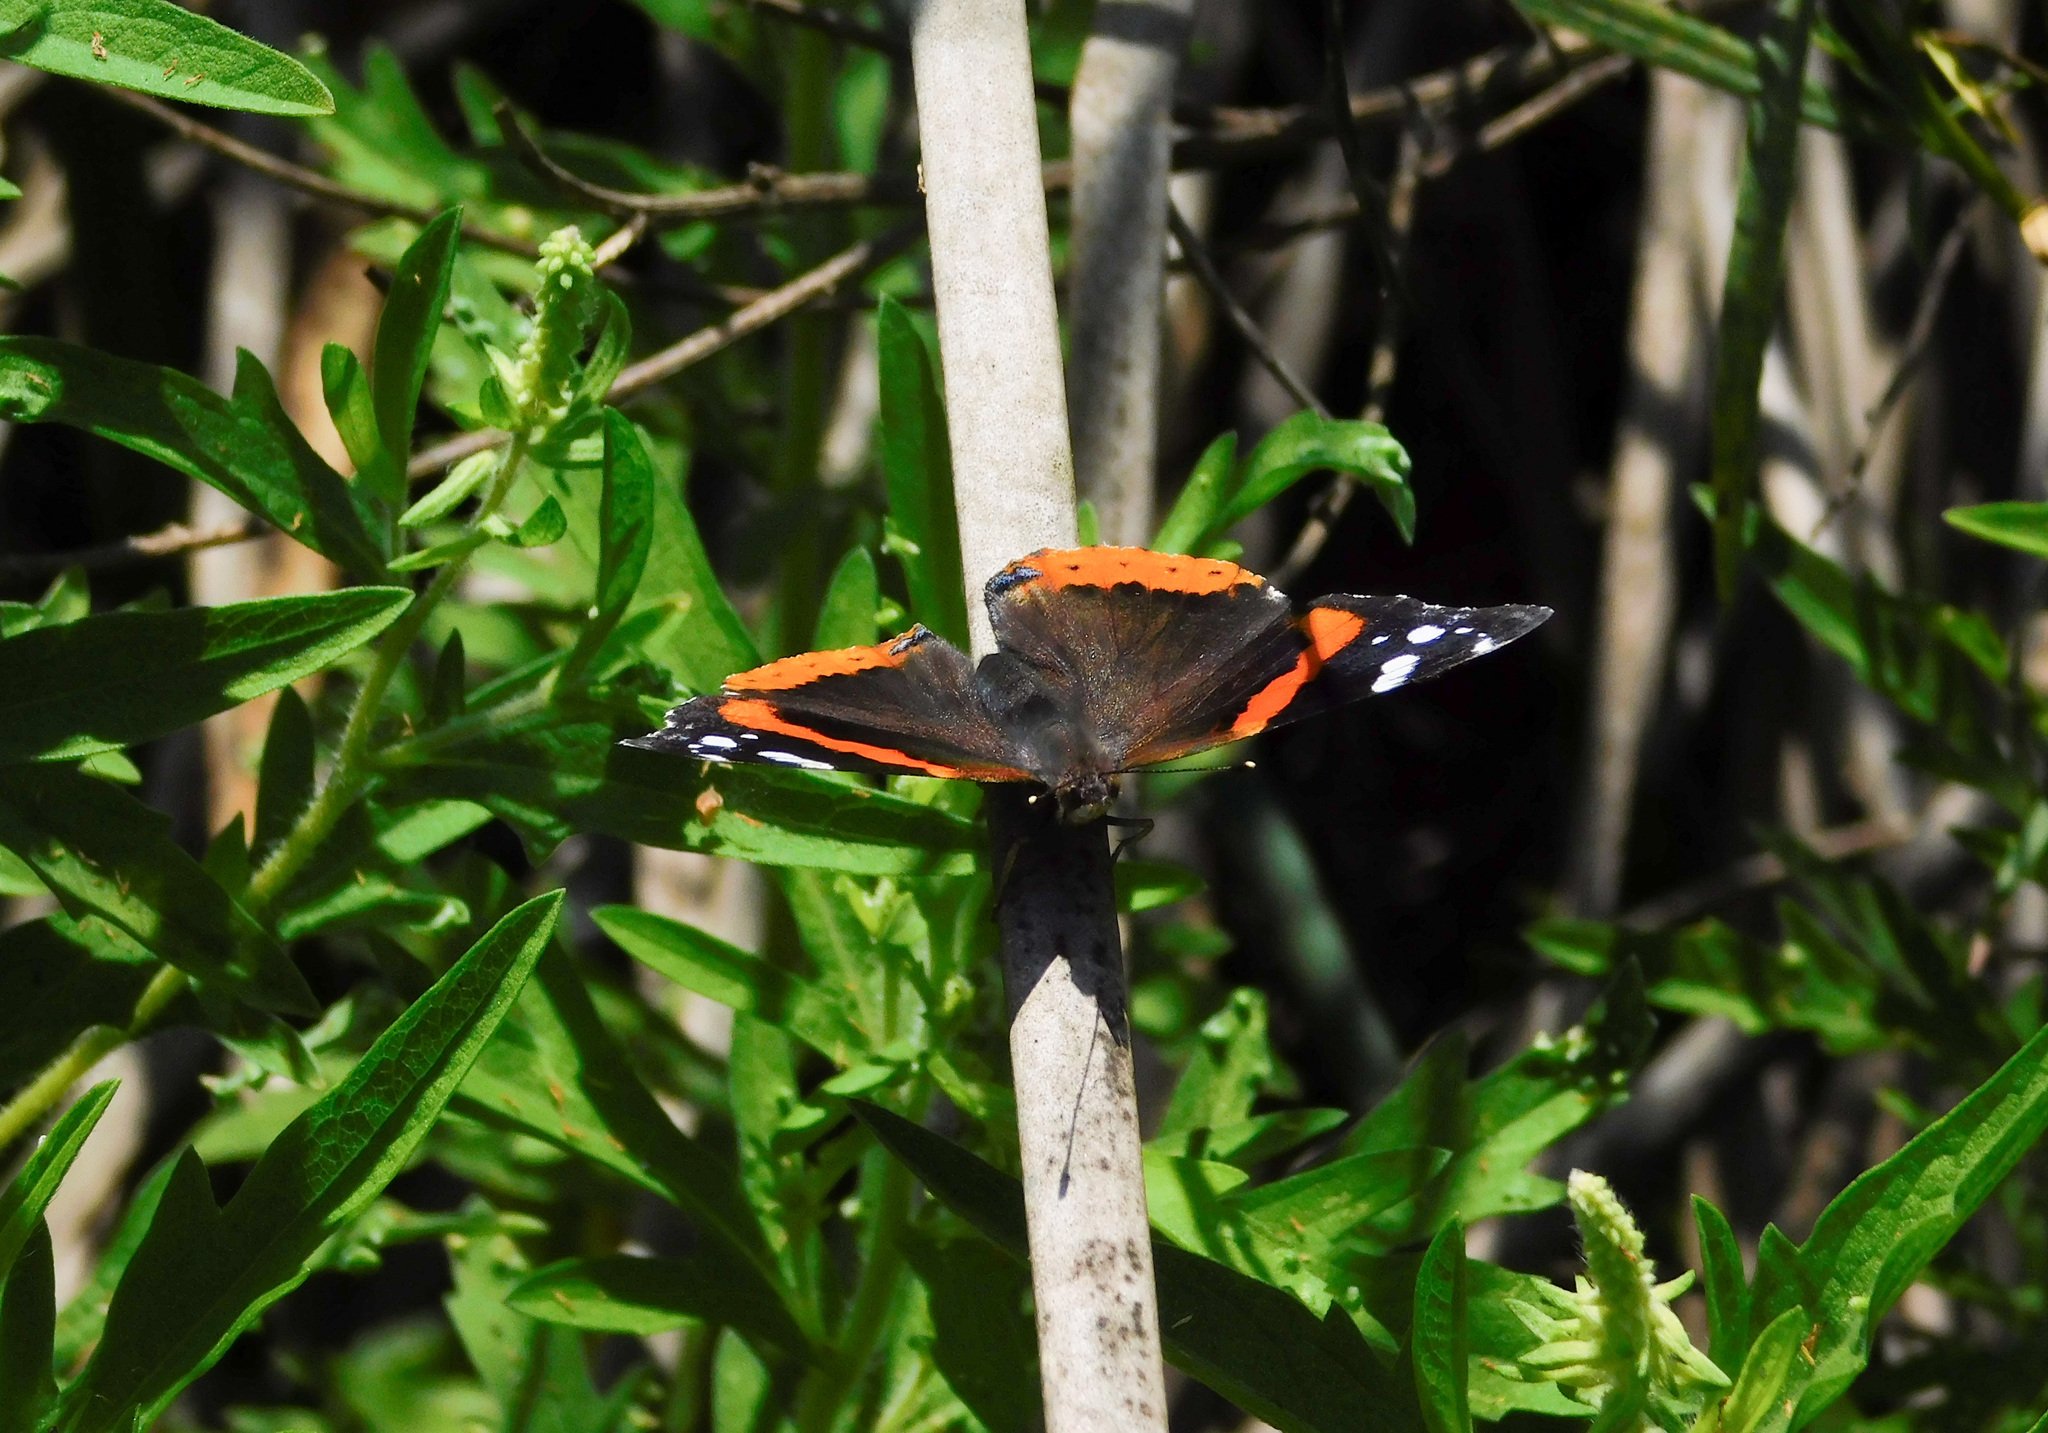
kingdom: Animalia
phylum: Arthropoda
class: Insecta
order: Lepidoptera
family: Nymphalidae
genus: Vanessa
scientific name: Vanessa atalanta
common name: Red admiral
